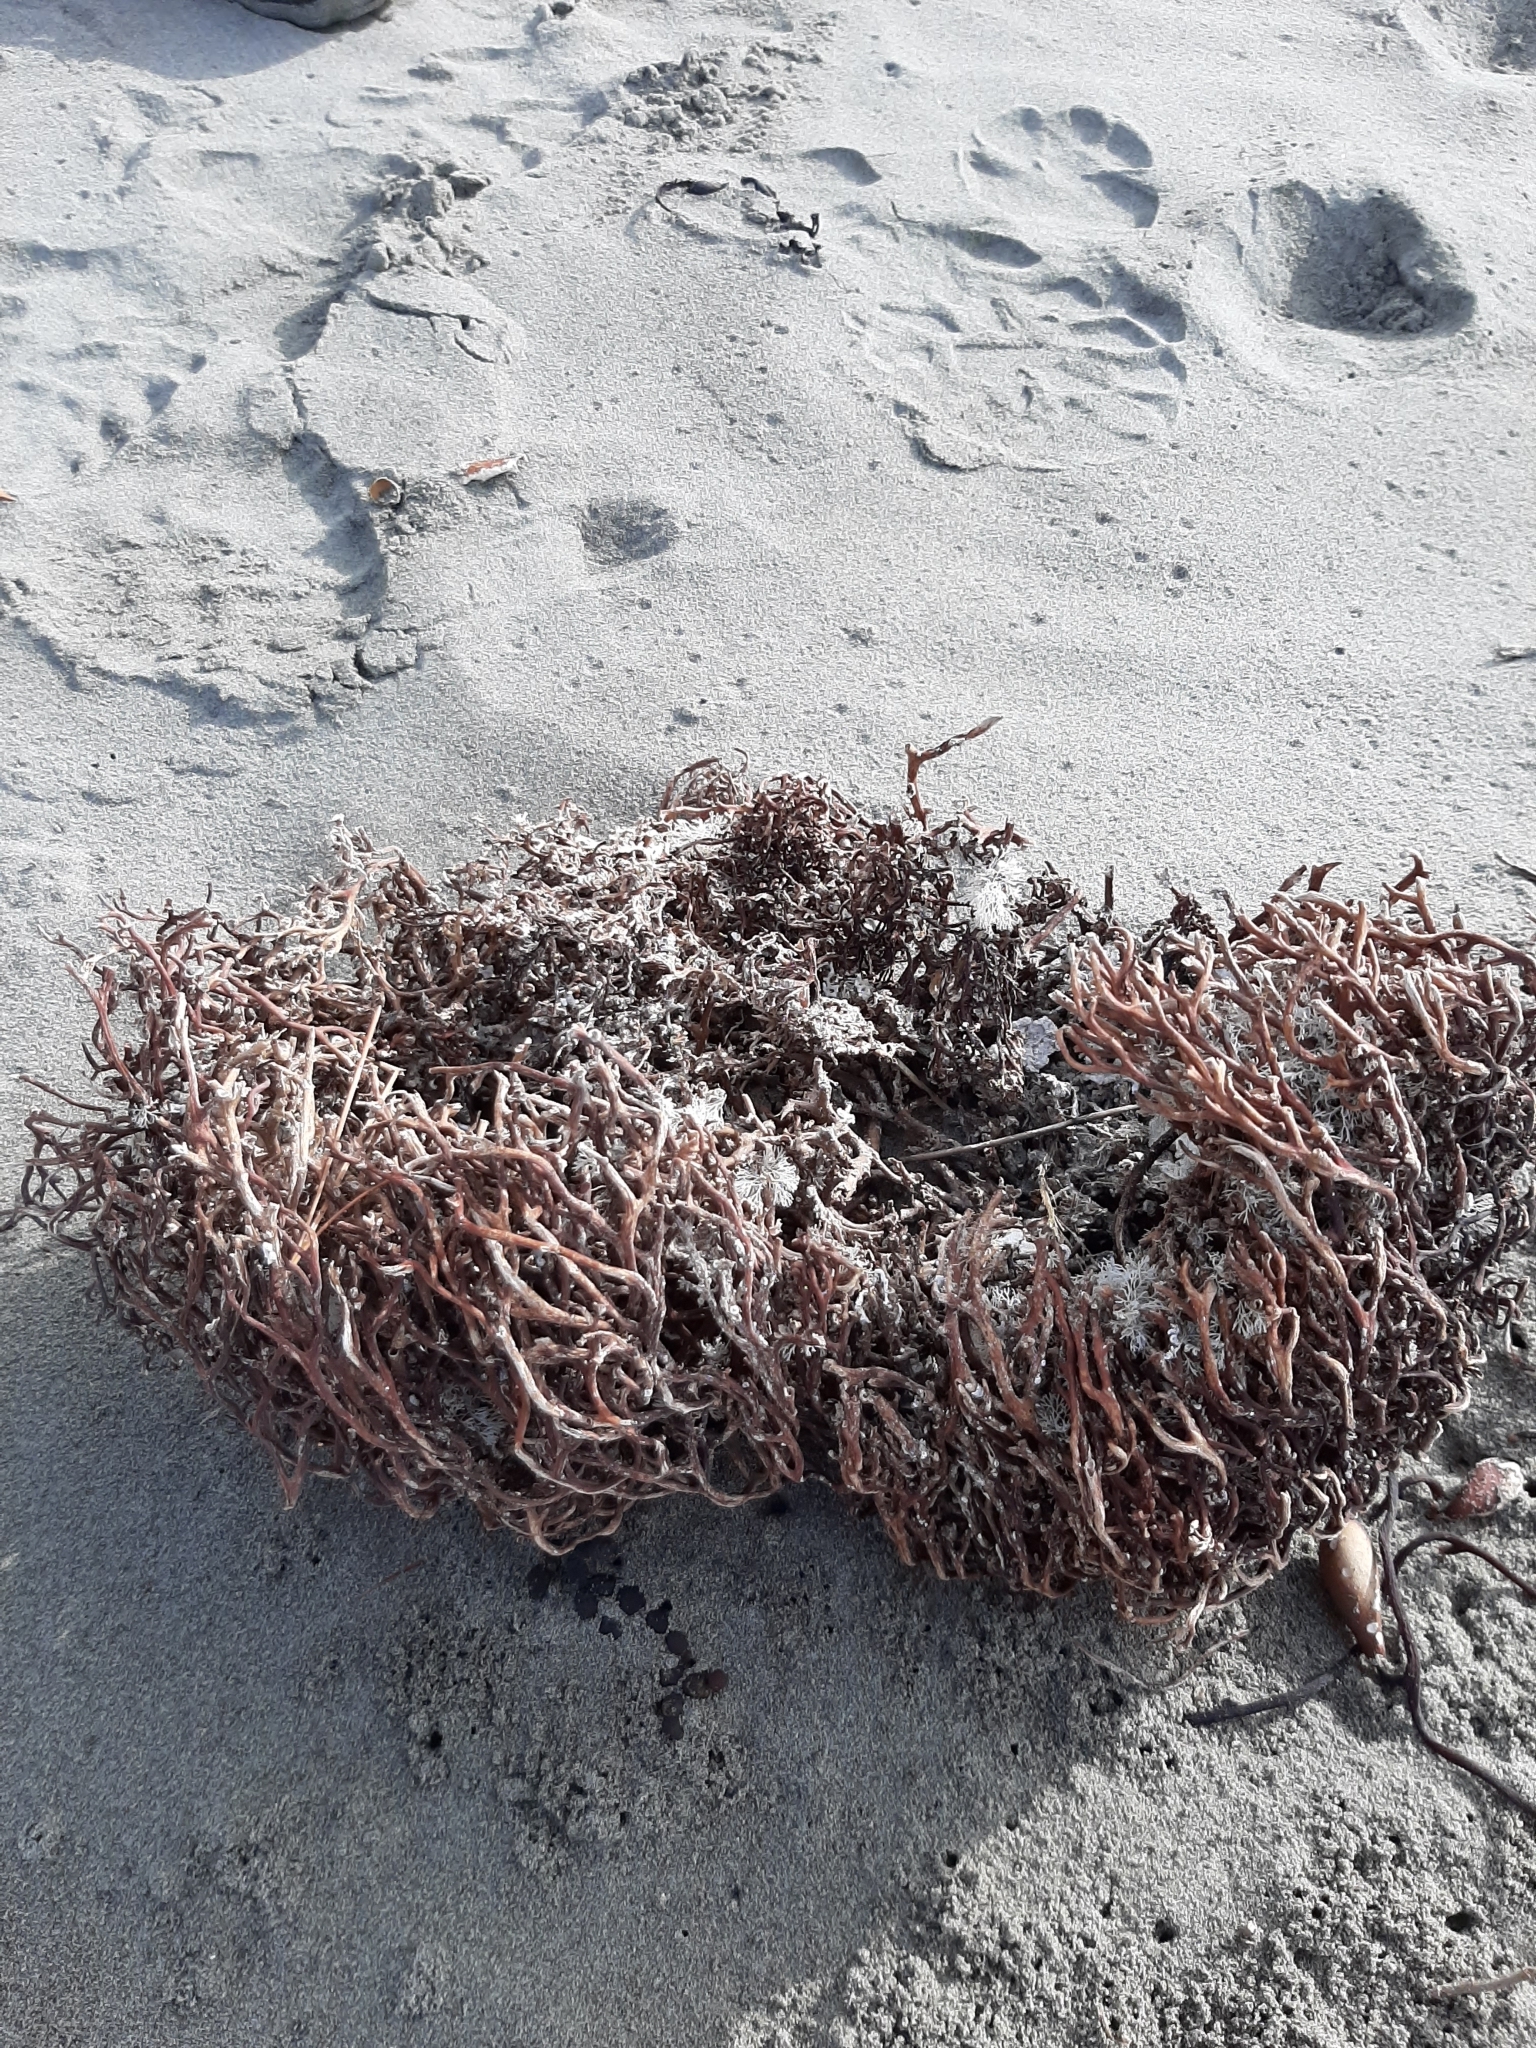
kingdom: Chromista
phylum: Ochrophyta
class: Phaeophyceae
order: Laminariales
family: Laminariaceae
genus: Macrocystis
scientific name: Macrocystis pyrifera
